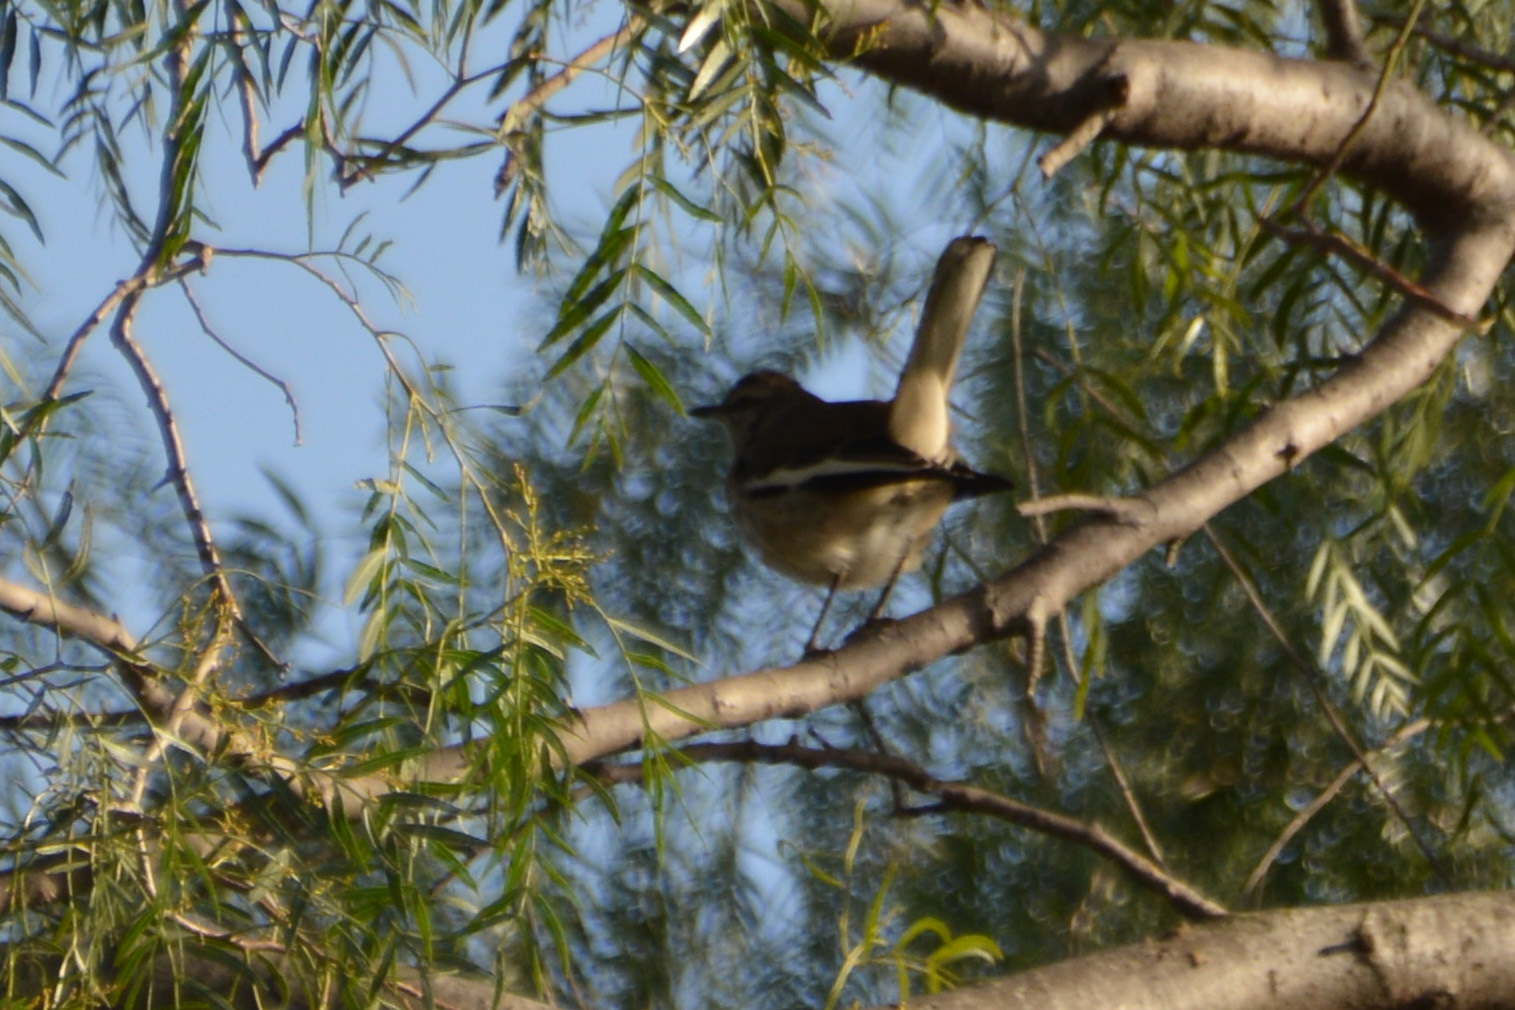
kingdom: Animalia
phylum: Chordata
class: Aves
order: Passeriformes
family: Mimidae
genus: Mimus
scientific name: Mimus triurus
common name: White-banded mockingbird
